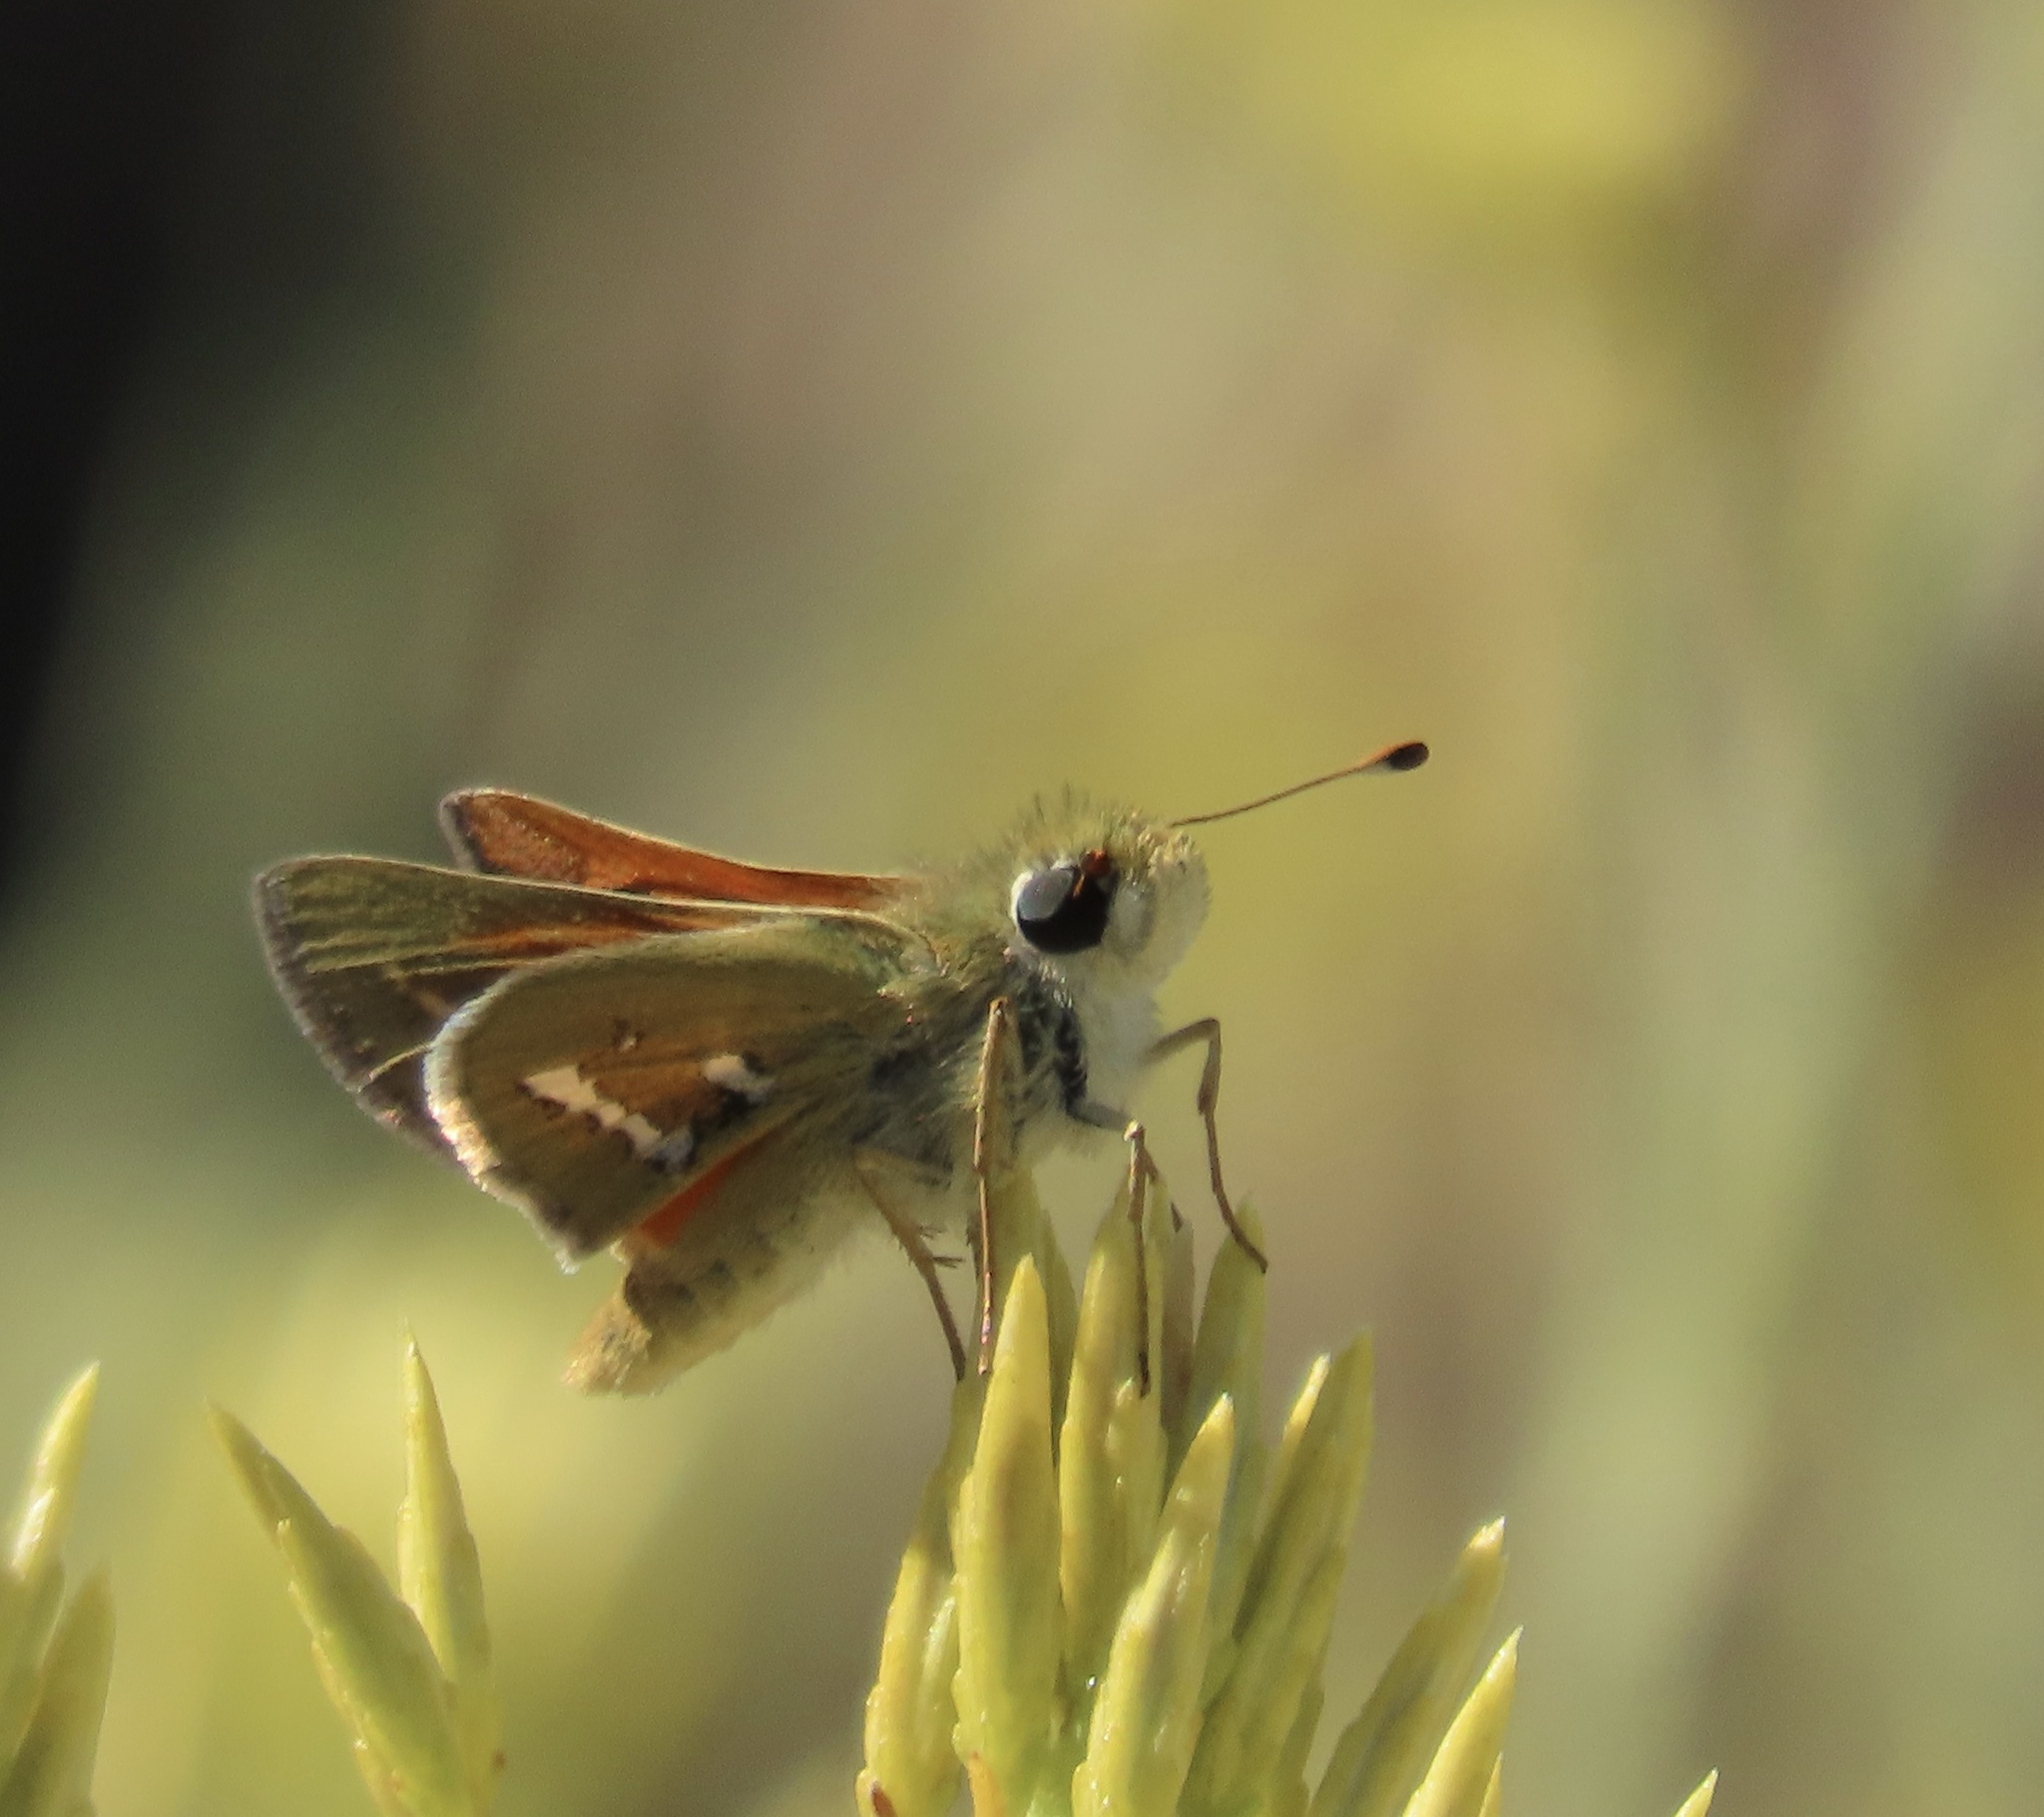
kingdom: Animalia
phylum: Arthropoda
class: Insecta
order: Lepidoptera
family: Hesperiidae
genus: Hesperia
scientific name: Hesperia columbia
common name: Columbian skipper
